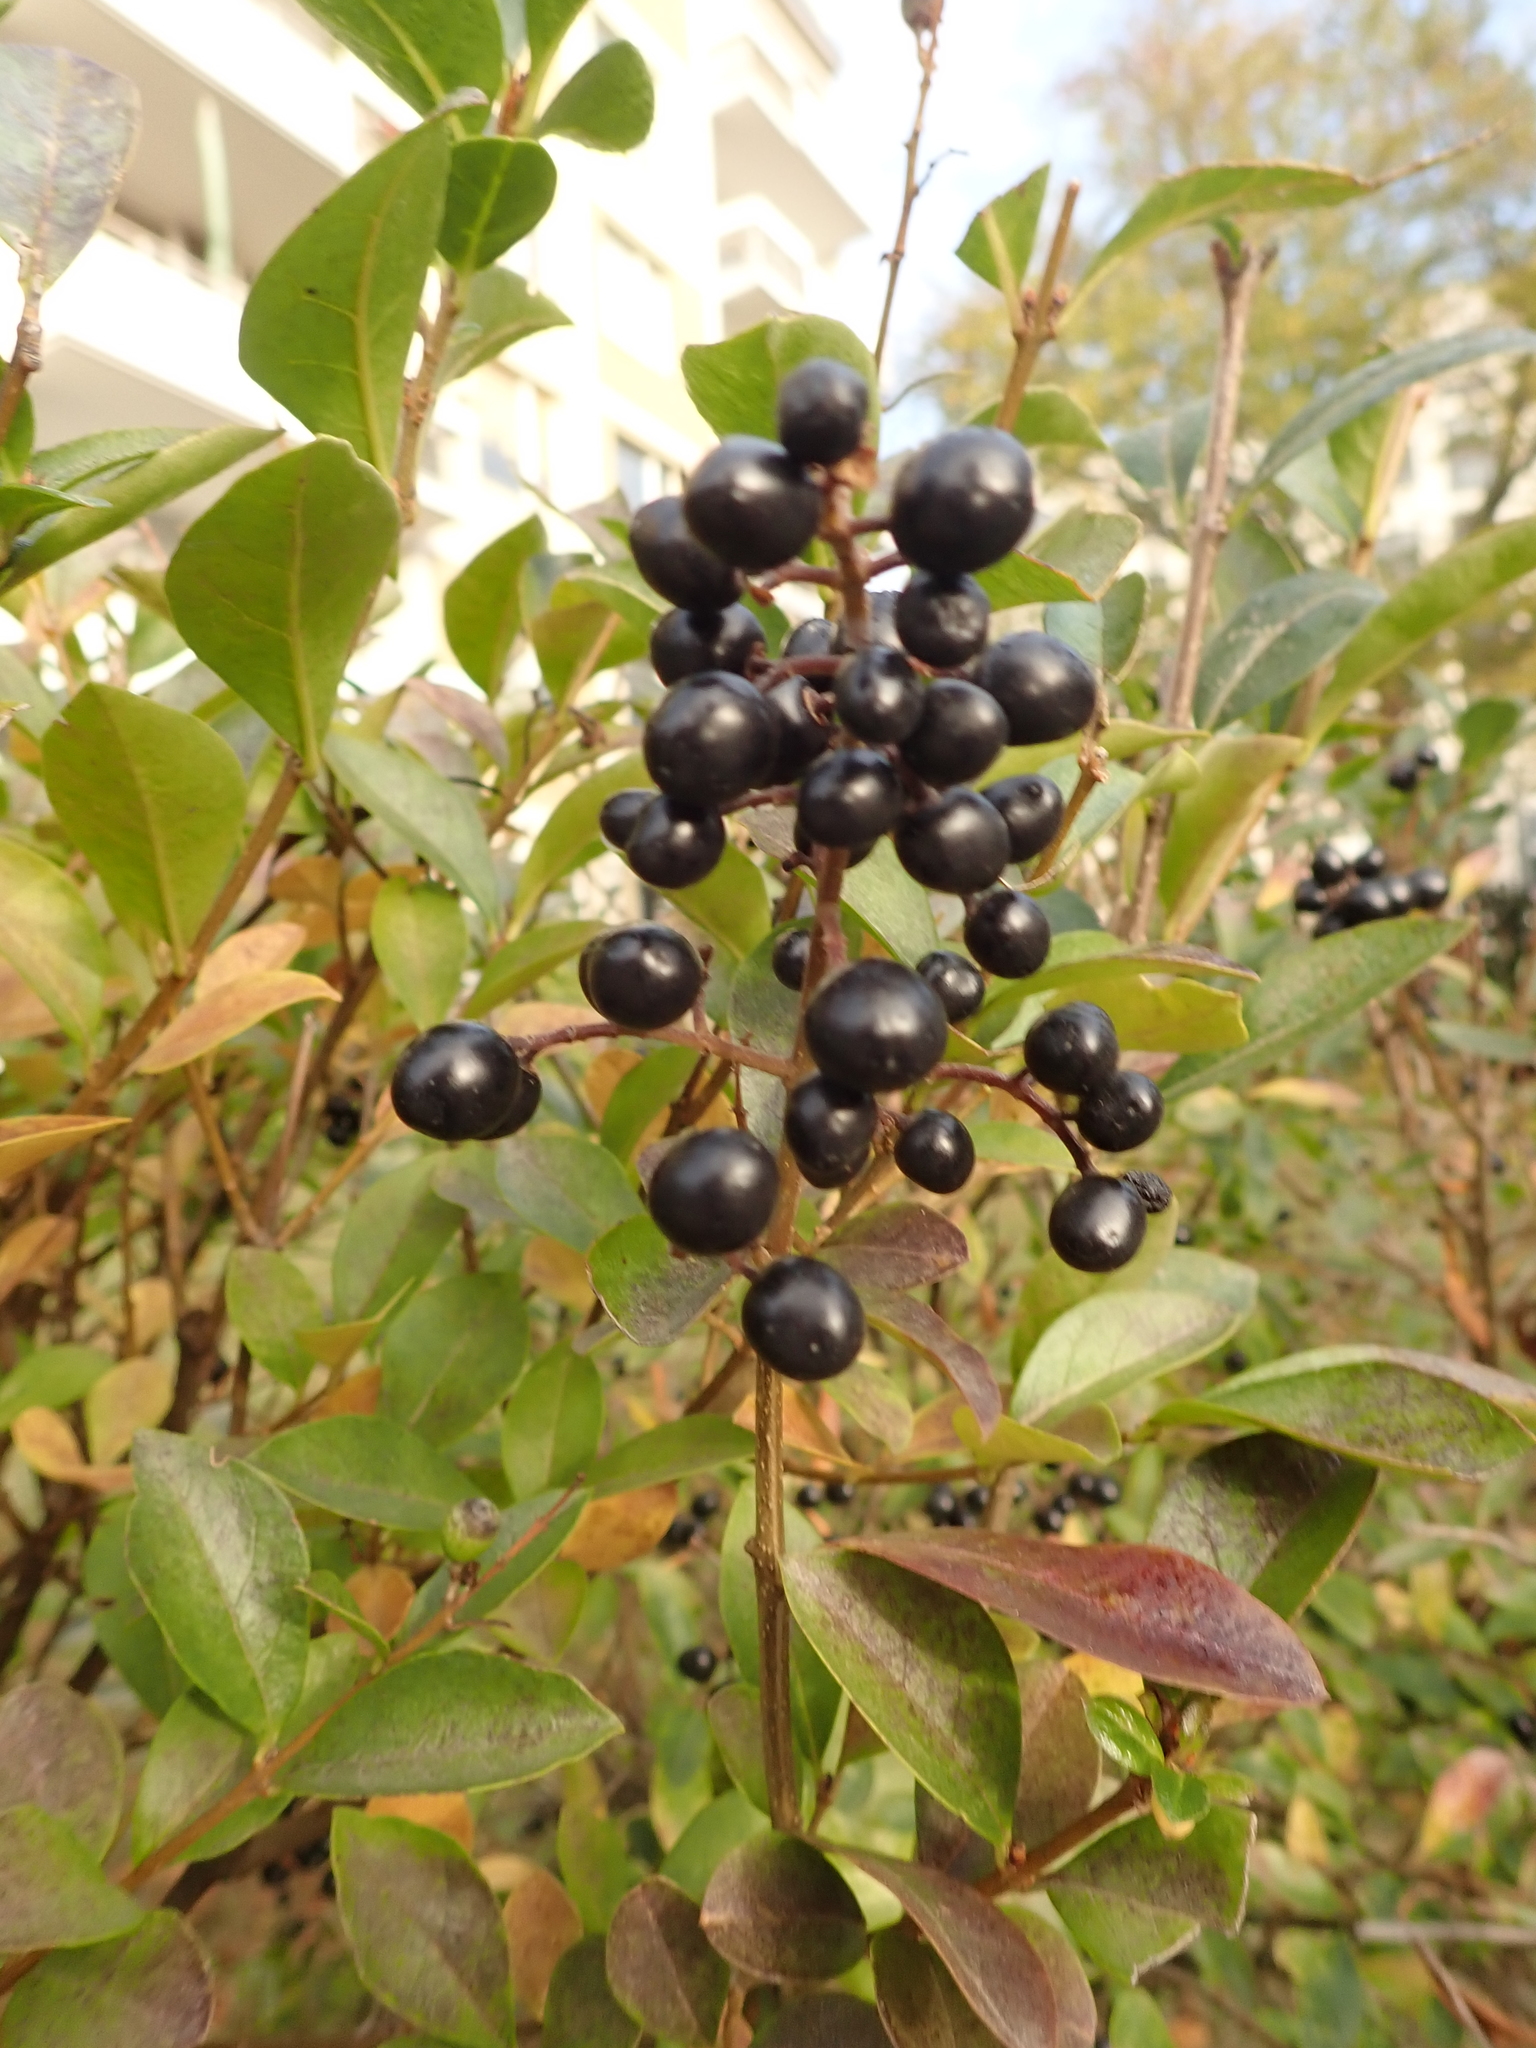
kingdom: Plantae
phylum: Tracheophyta
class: Magnoliopsida
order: Lamiales
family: Oleaceae
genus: Ligustrum
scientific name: Ligustrum vulgare
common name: Wild privet
